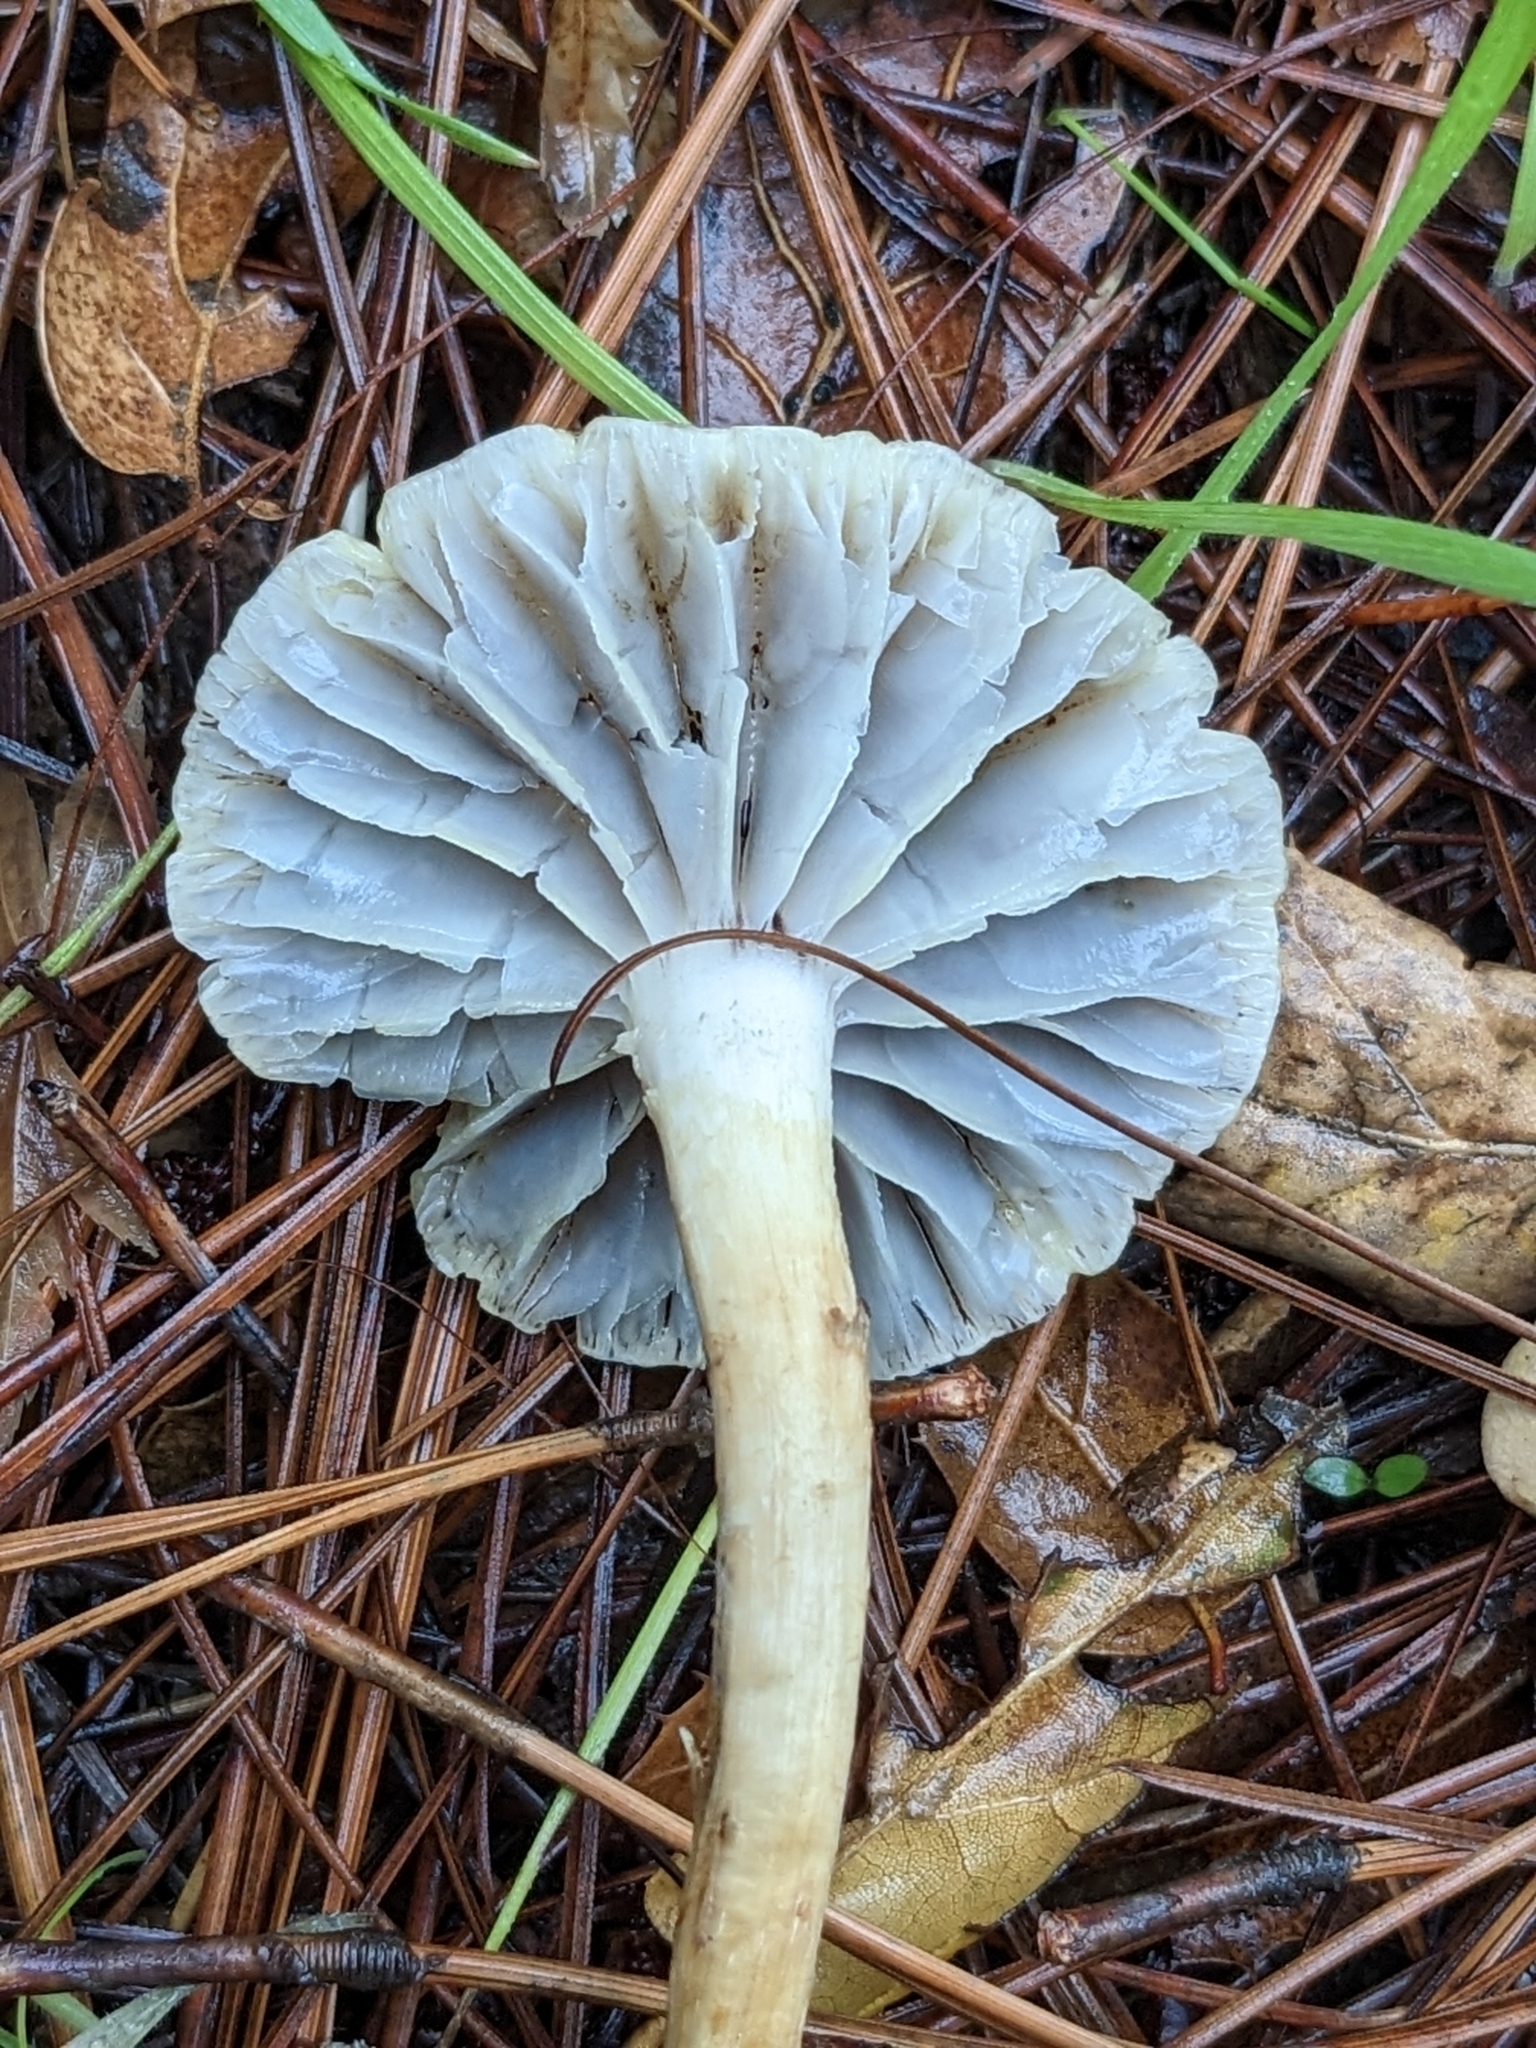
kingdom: Fungi
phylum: Basidiomycota
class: Agaricomycetes
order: Agaricales
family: Strophariaceae
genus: Leratiomyces
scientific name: Leratiomyces percevalii
